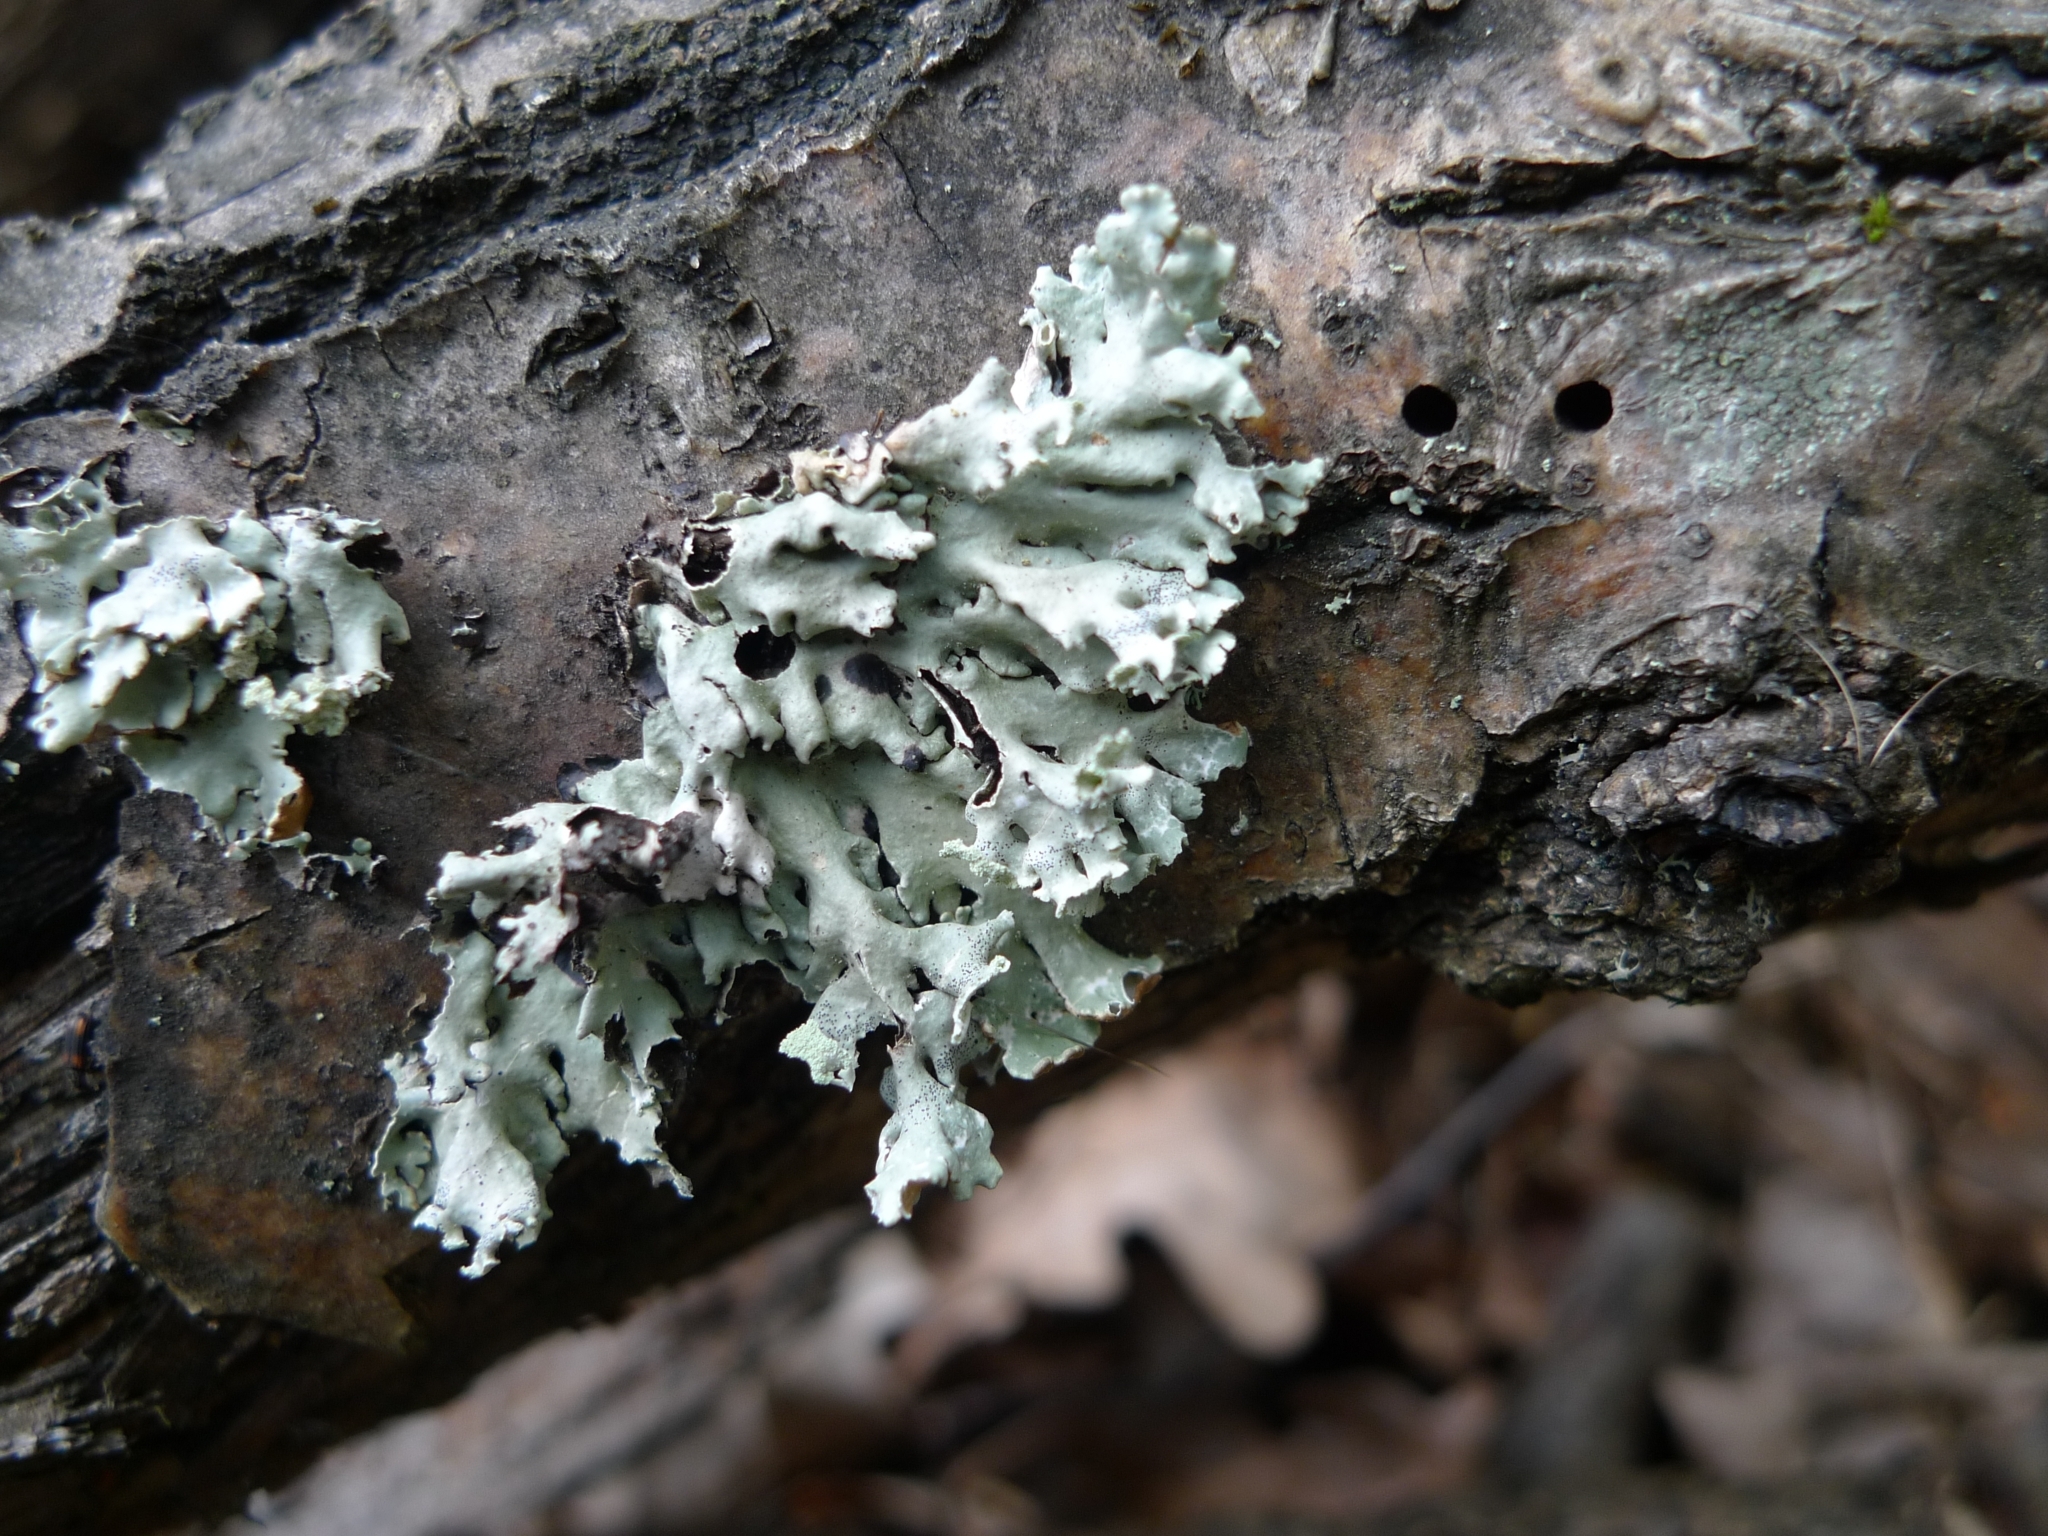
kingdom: Fungi
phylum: Ascomycota
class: Lecanoromycetes
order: Lecanorales
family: Parmeliaceae
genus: Hypogymnia
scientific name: Hypogymnia physodes
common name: Dark crottle
